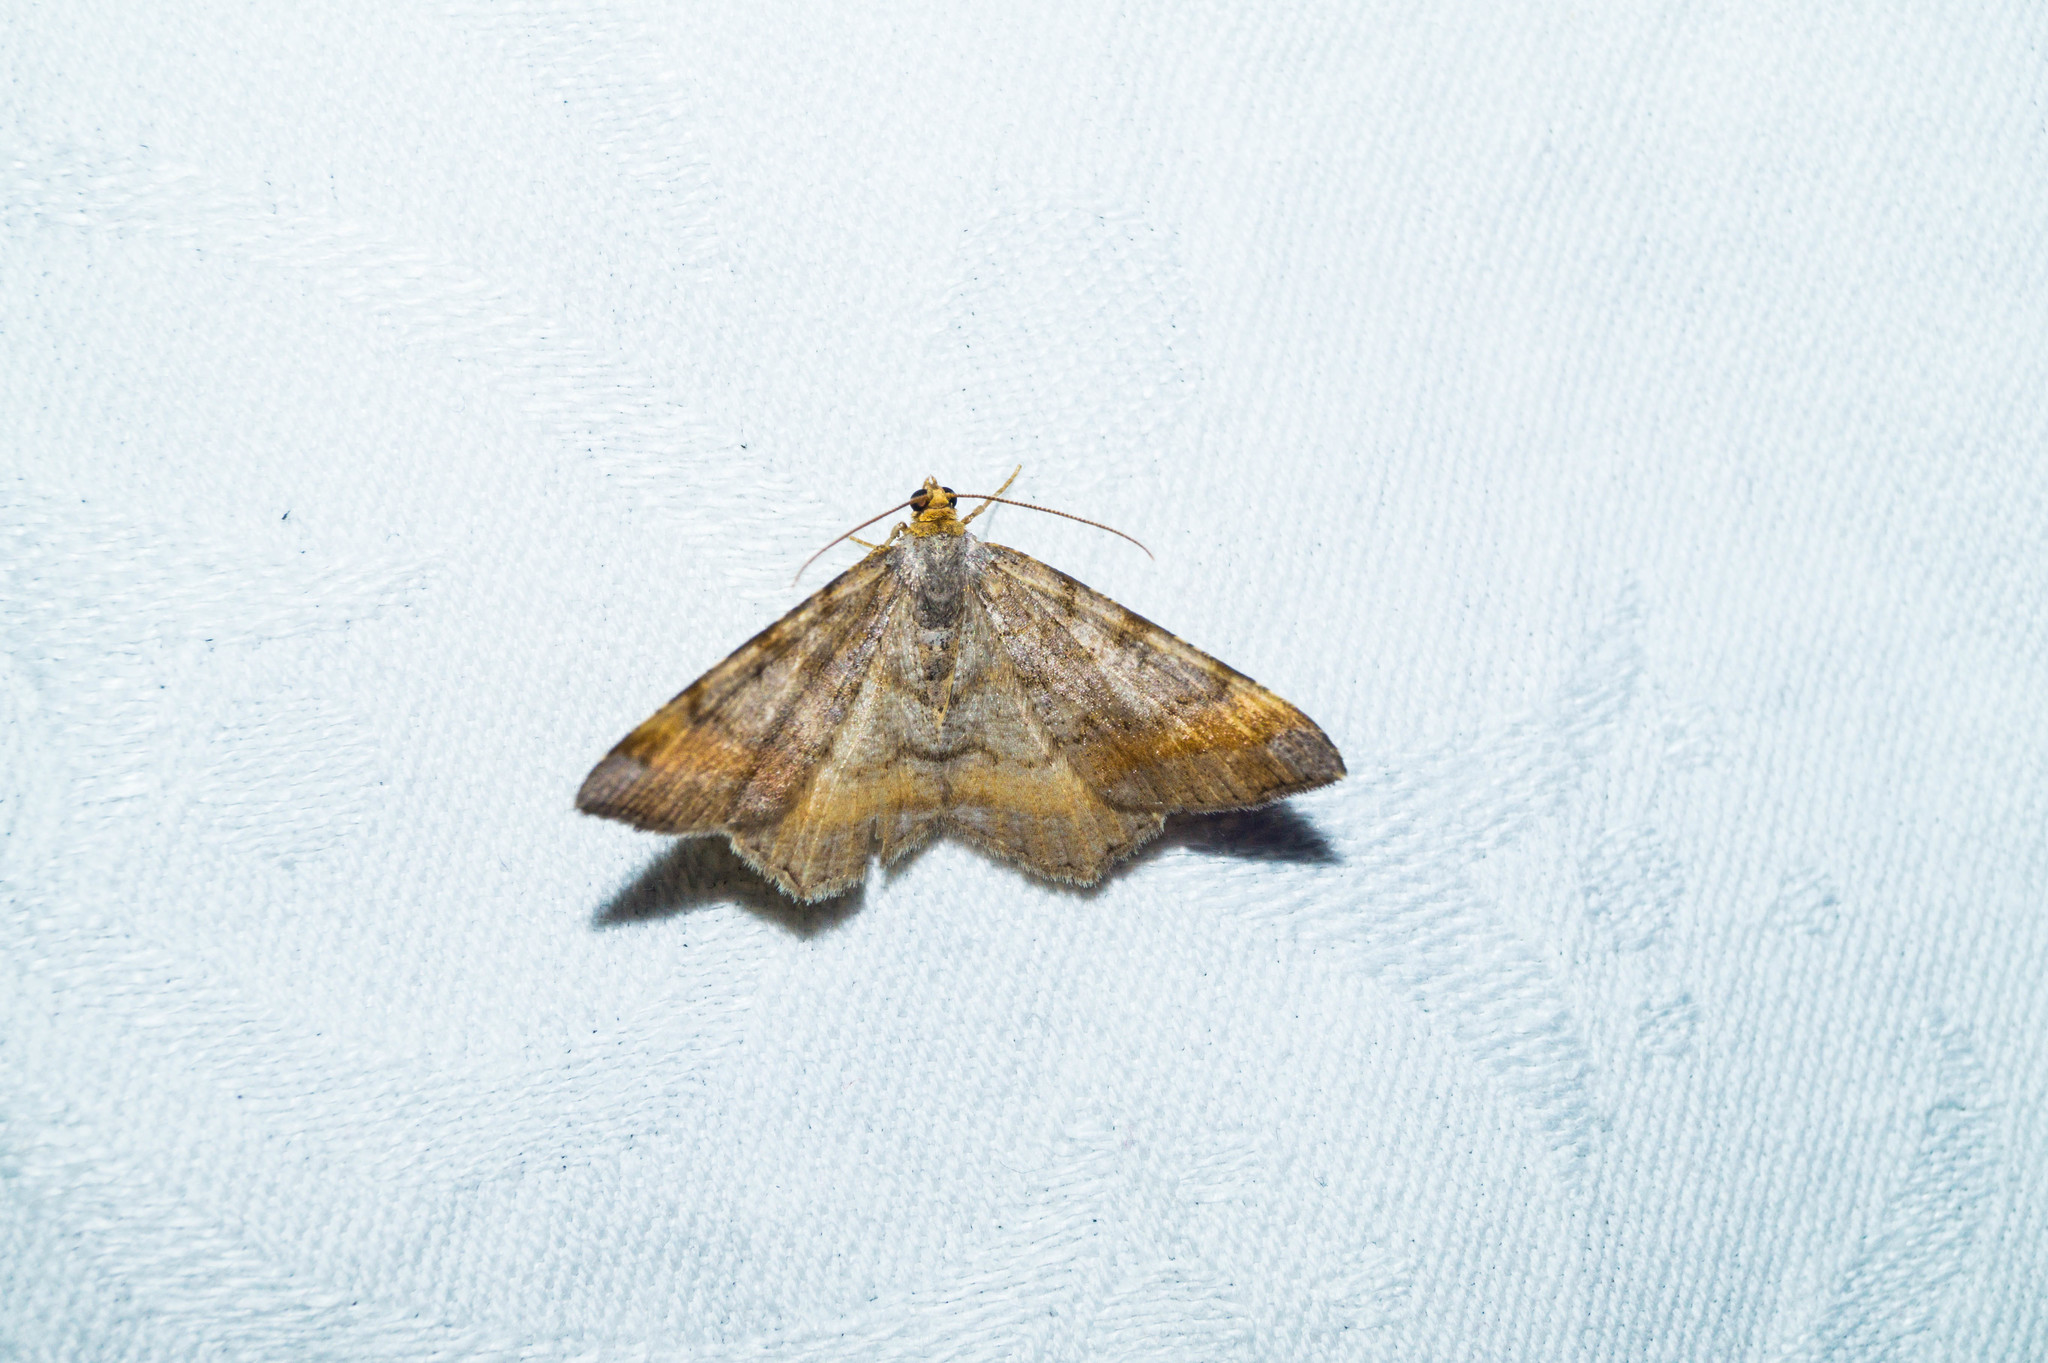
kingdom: Animalia
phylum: Arthropoda
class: Insecta
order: Lepidoptera
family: Geometridae
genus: Macaria
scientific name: Macaria liturata
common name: Tawny-barred angle
